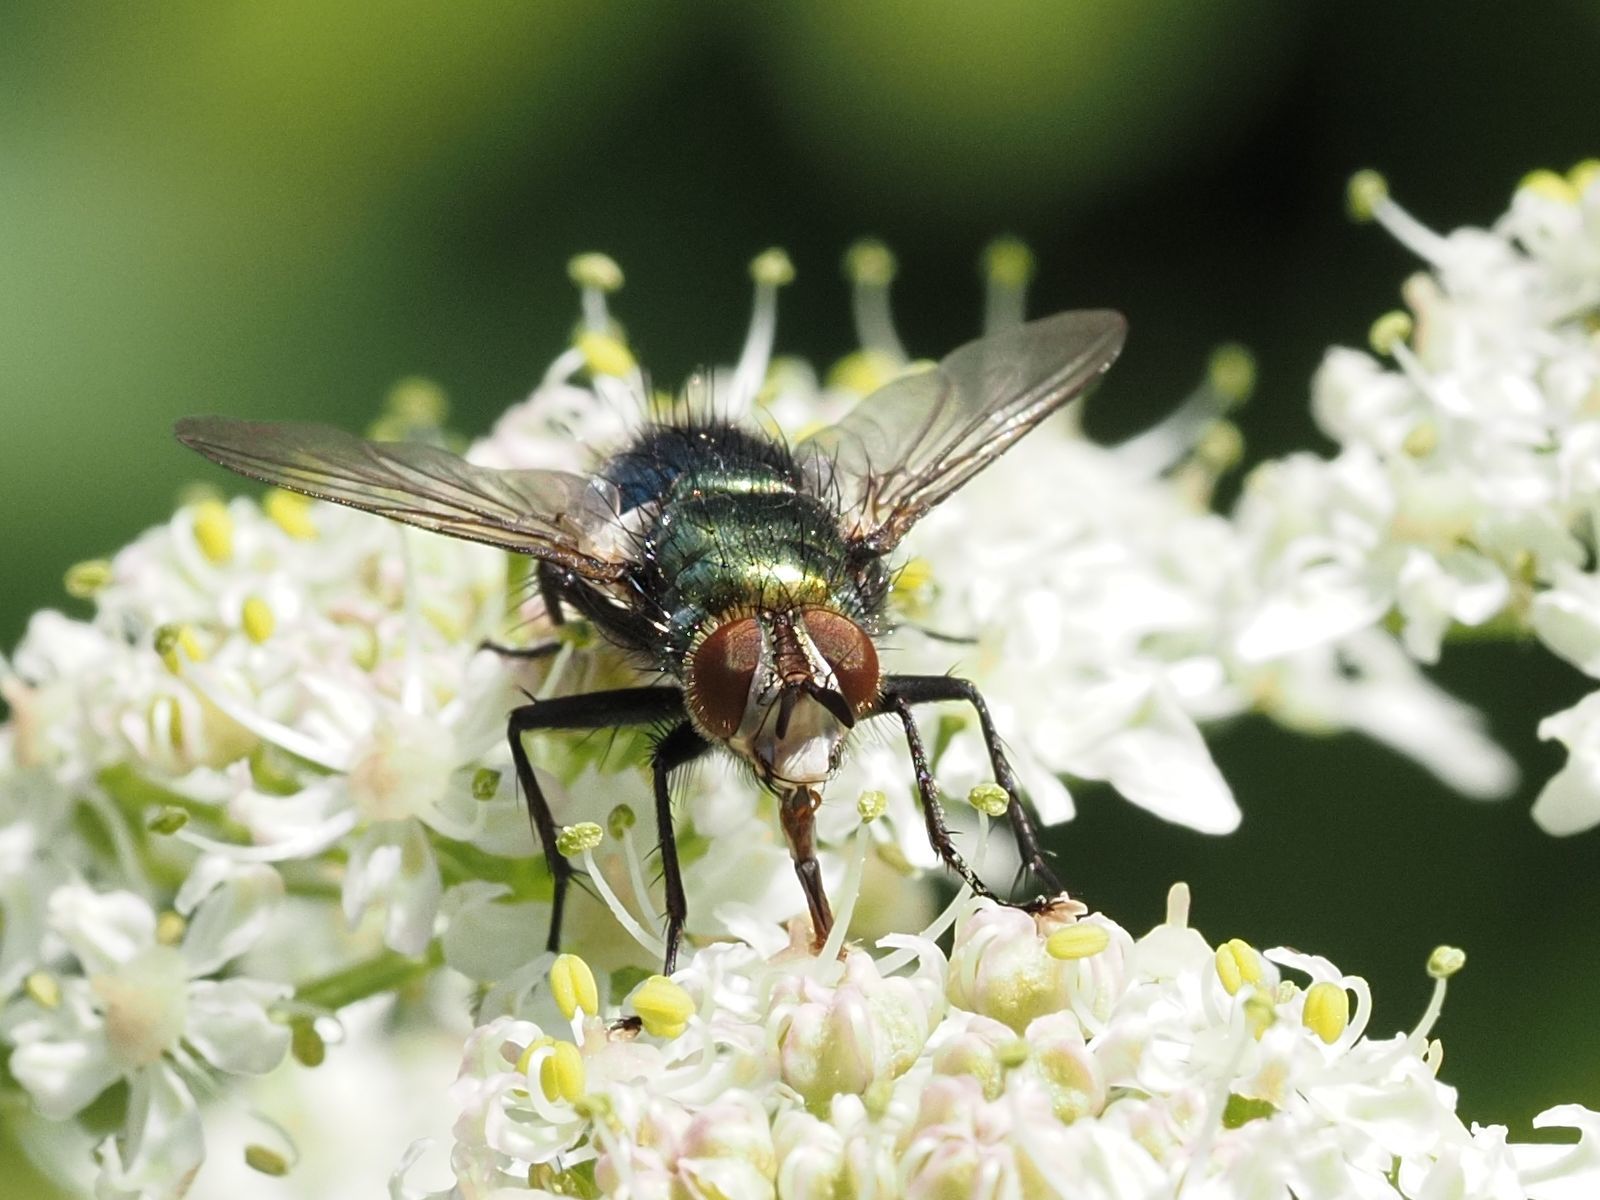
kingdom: Animalia
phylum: Arthropoda
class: Insecta
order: Diptera
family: Tachinidae
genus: Chrysosomopsis
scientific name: Chrysosomopsis
